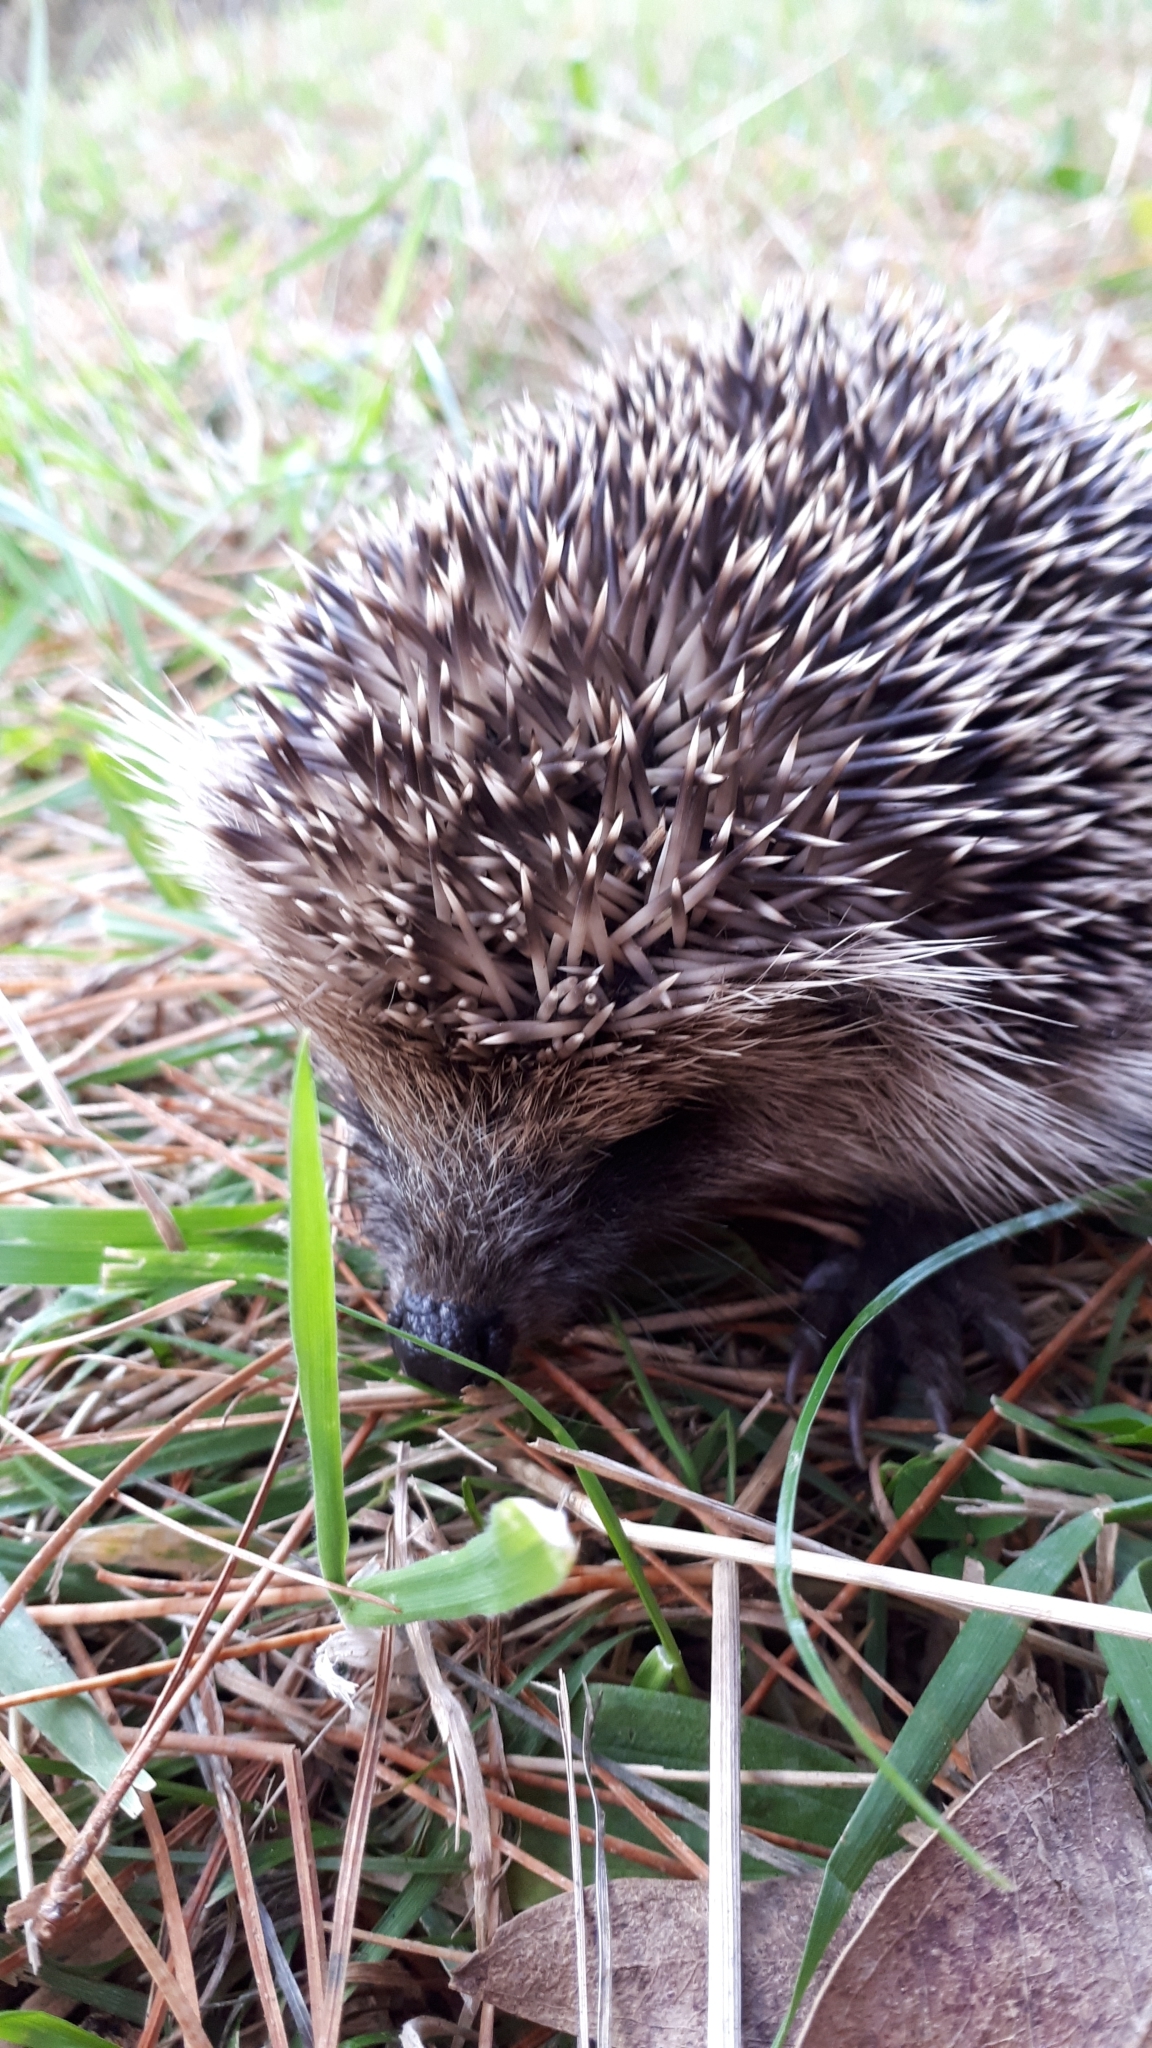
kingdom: Animalia
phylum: Chordata
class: Mammalia
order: Erinaceomorpha
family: Erinaceidae
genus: Erinaceus
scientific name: Erinaceus europaeus
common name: West european hedgehog
